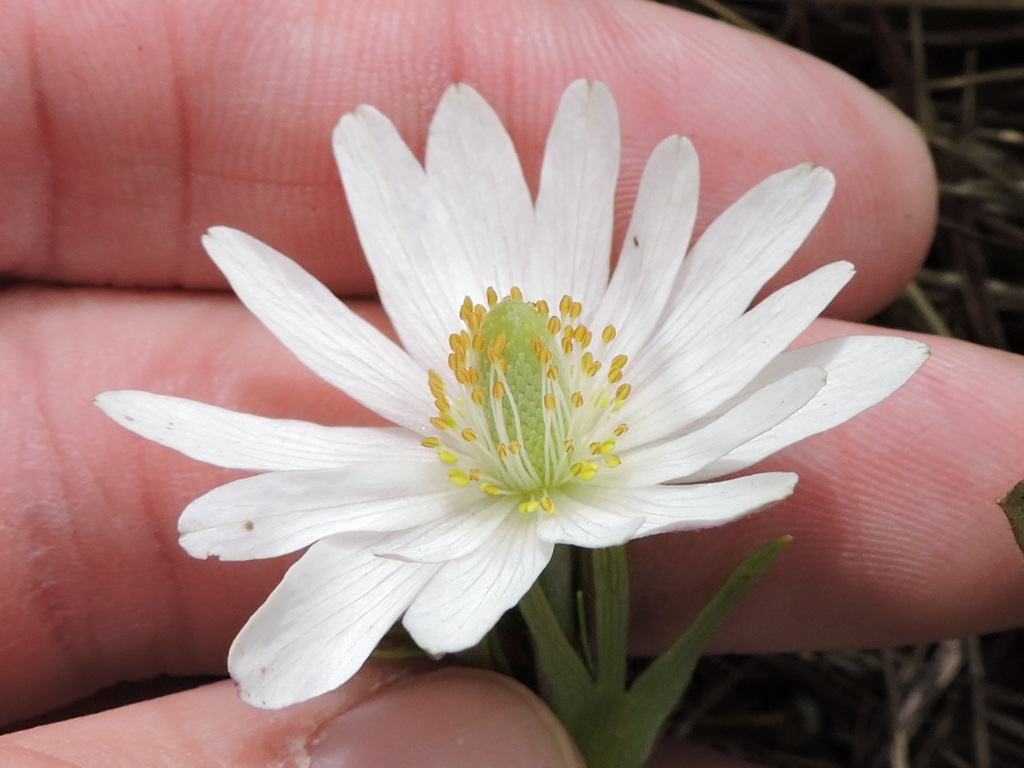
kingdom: Plantae
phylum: Tracheophyta
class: Magnoliopsida
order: Ranunculales
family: Ranunculaceae
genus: Anemone
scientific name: Anemone berlandieri
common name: Ten-petal anemone
